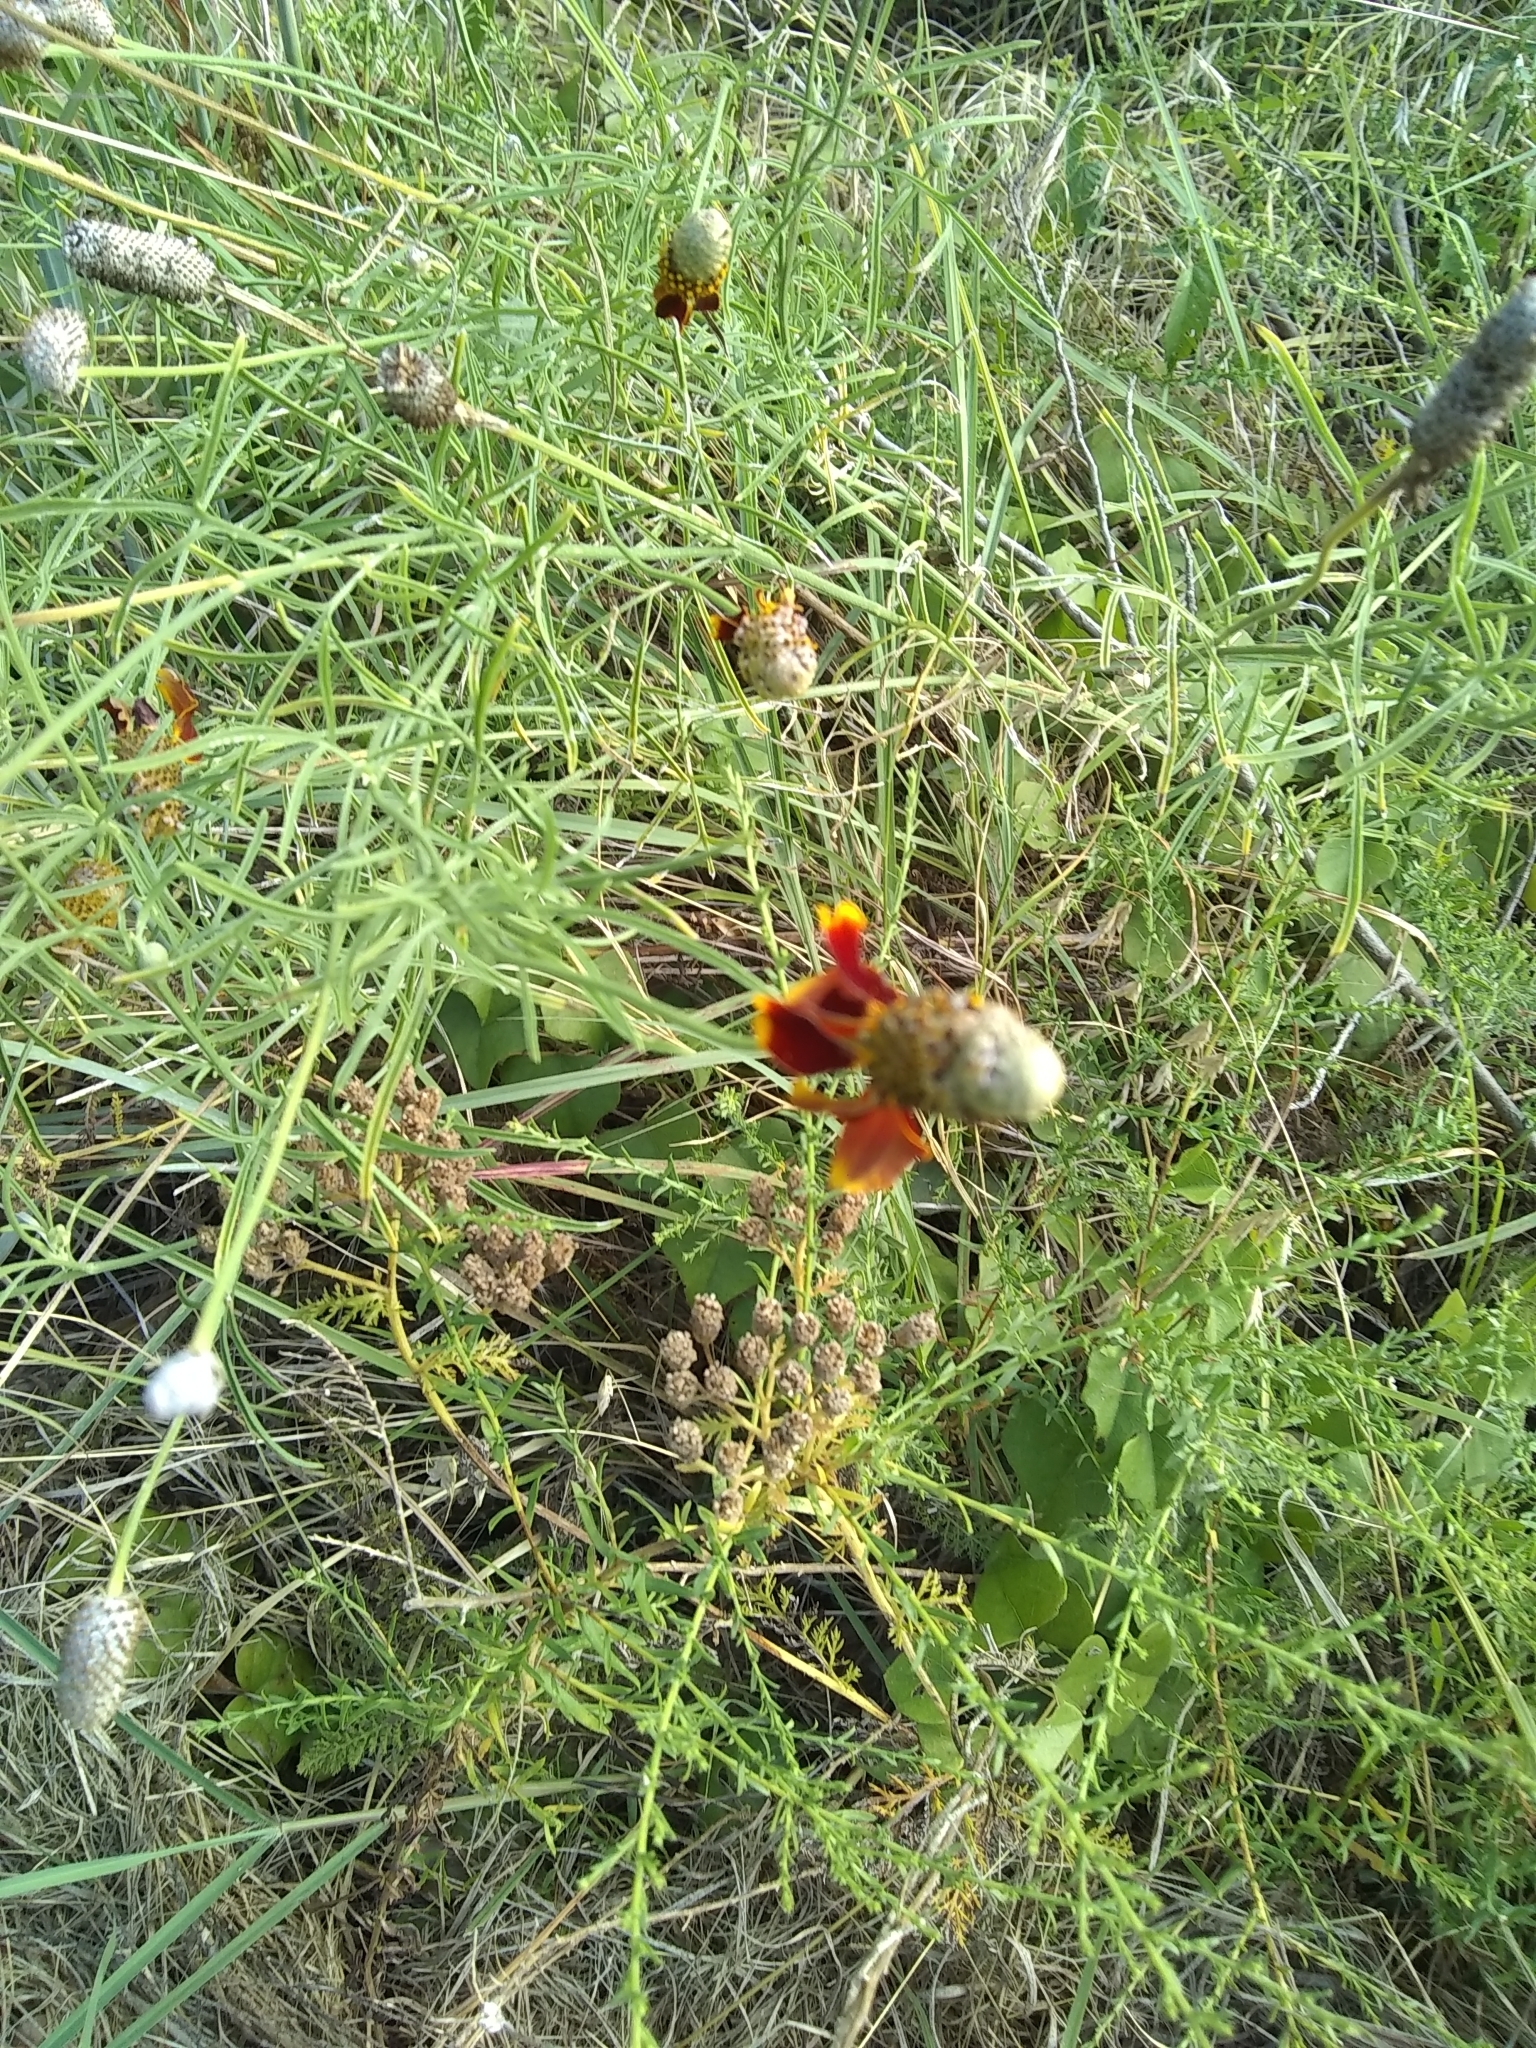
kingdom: Plantae
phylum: Tracheophyta
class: Magnoliopsida
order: Asterales
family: Asteraceae
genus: Ratibida
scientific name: Ratibida columnifera
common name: Prairie coneflower
